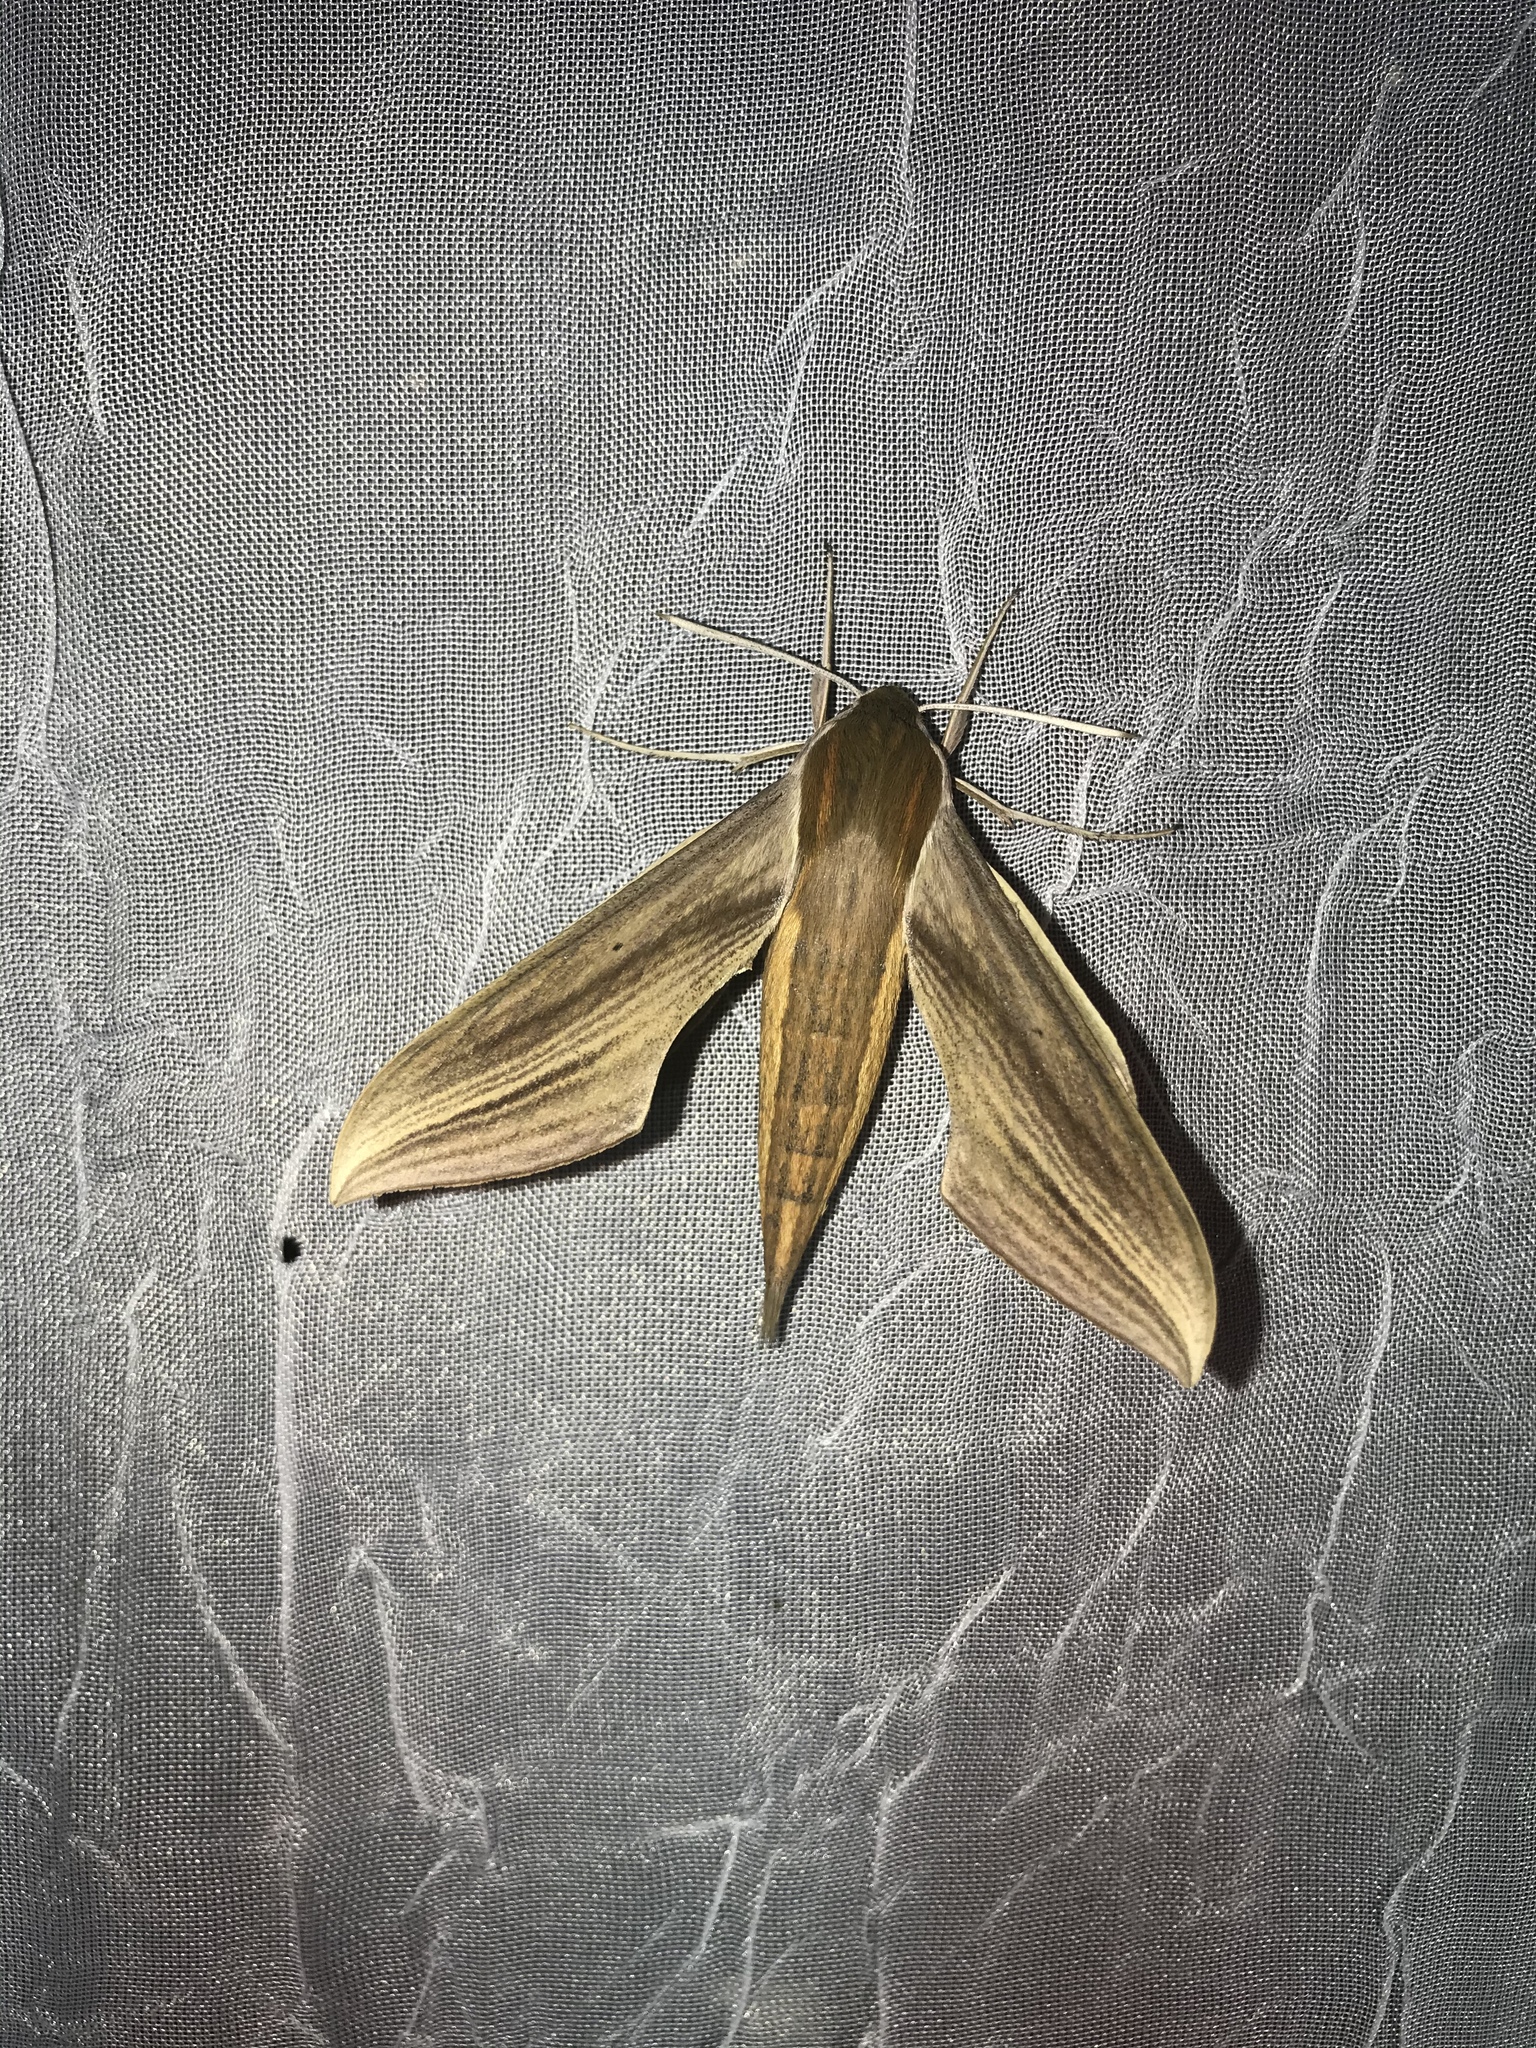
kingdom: Animalia
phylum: Arthropoda
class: Insecta
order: Lepidoptera
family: Sphingidae
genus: Xylophanes
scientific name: Xylophanes tersa
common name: Tersa sphinx
